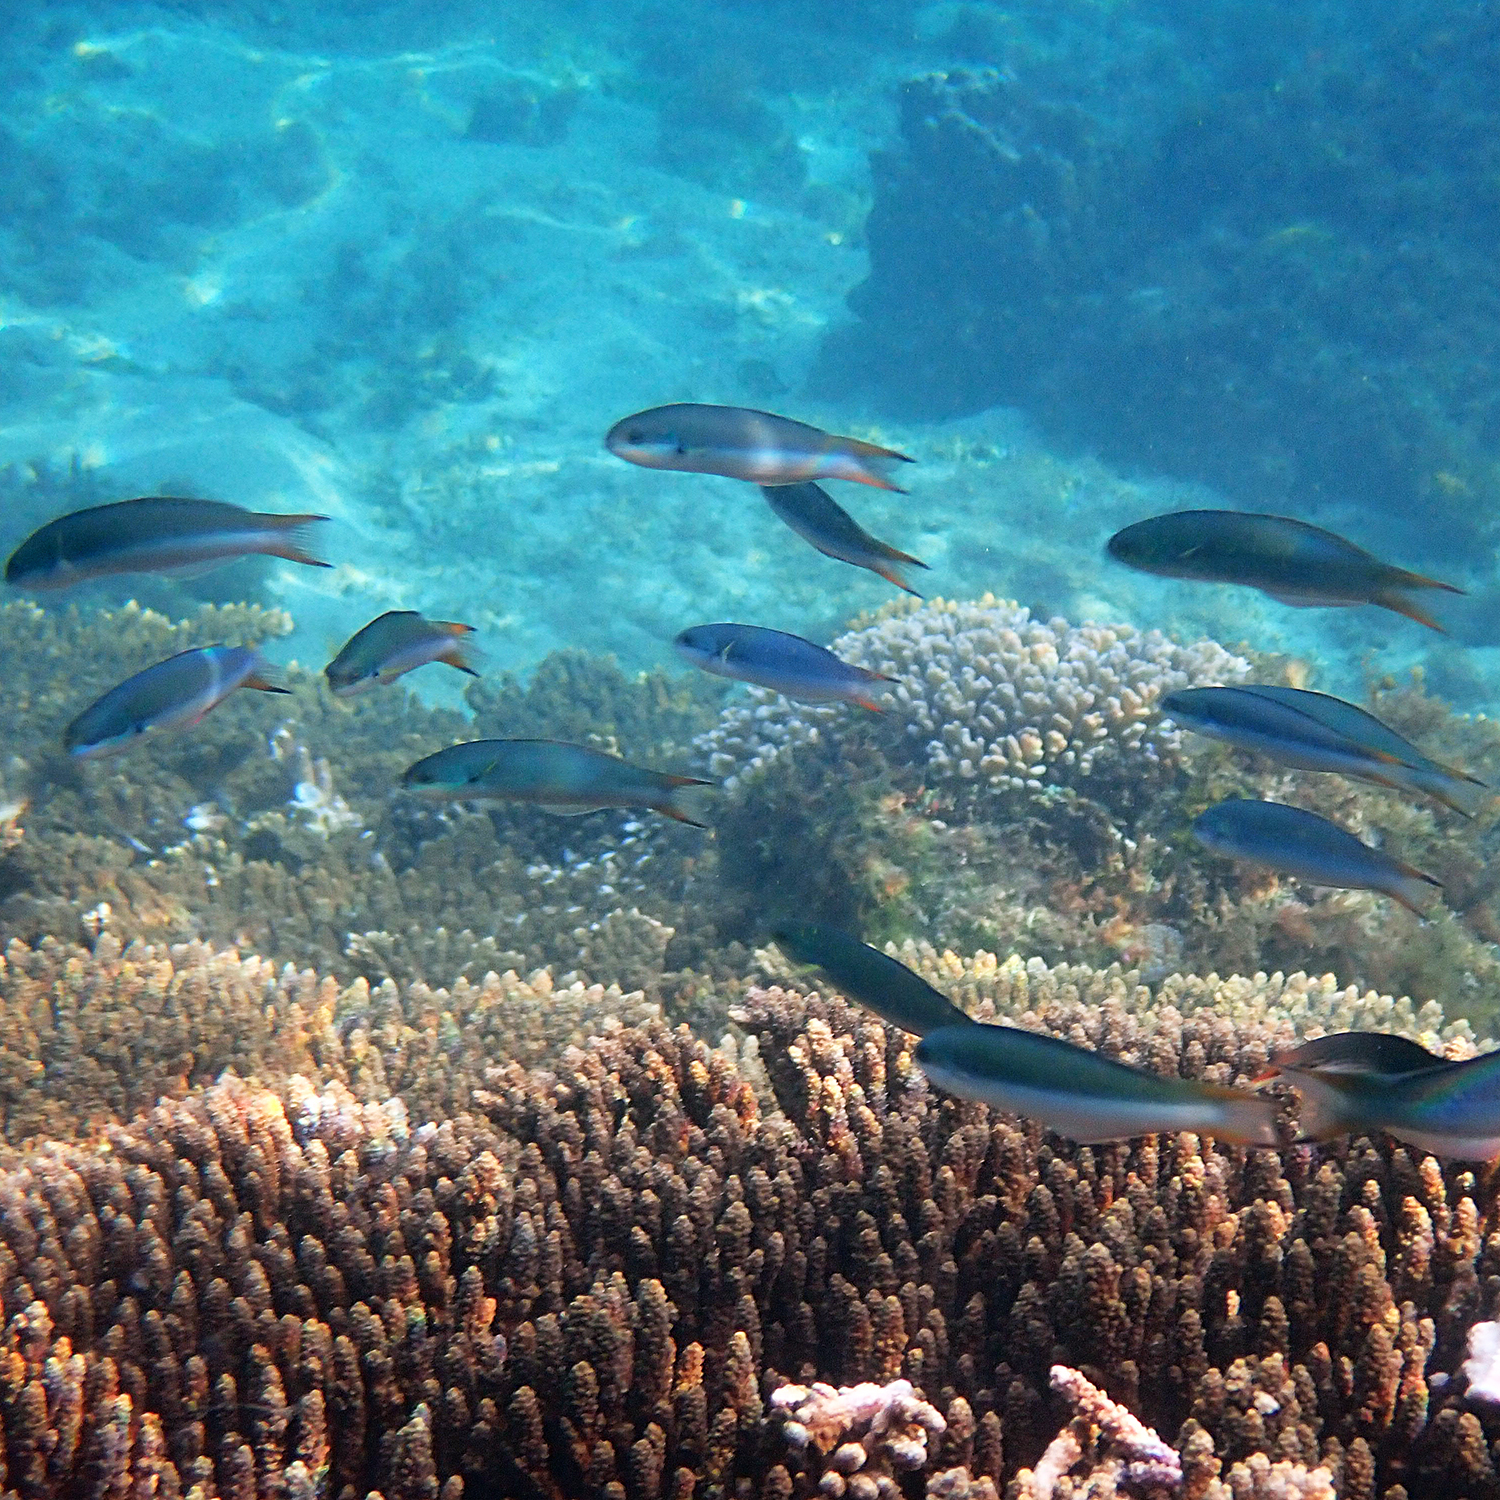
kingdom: Animalia
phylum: Chordata
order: Perciformes
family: Labridae
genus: Thalassoma
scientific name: Thalassoma amblycephalum
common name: Bluehead wrasse
